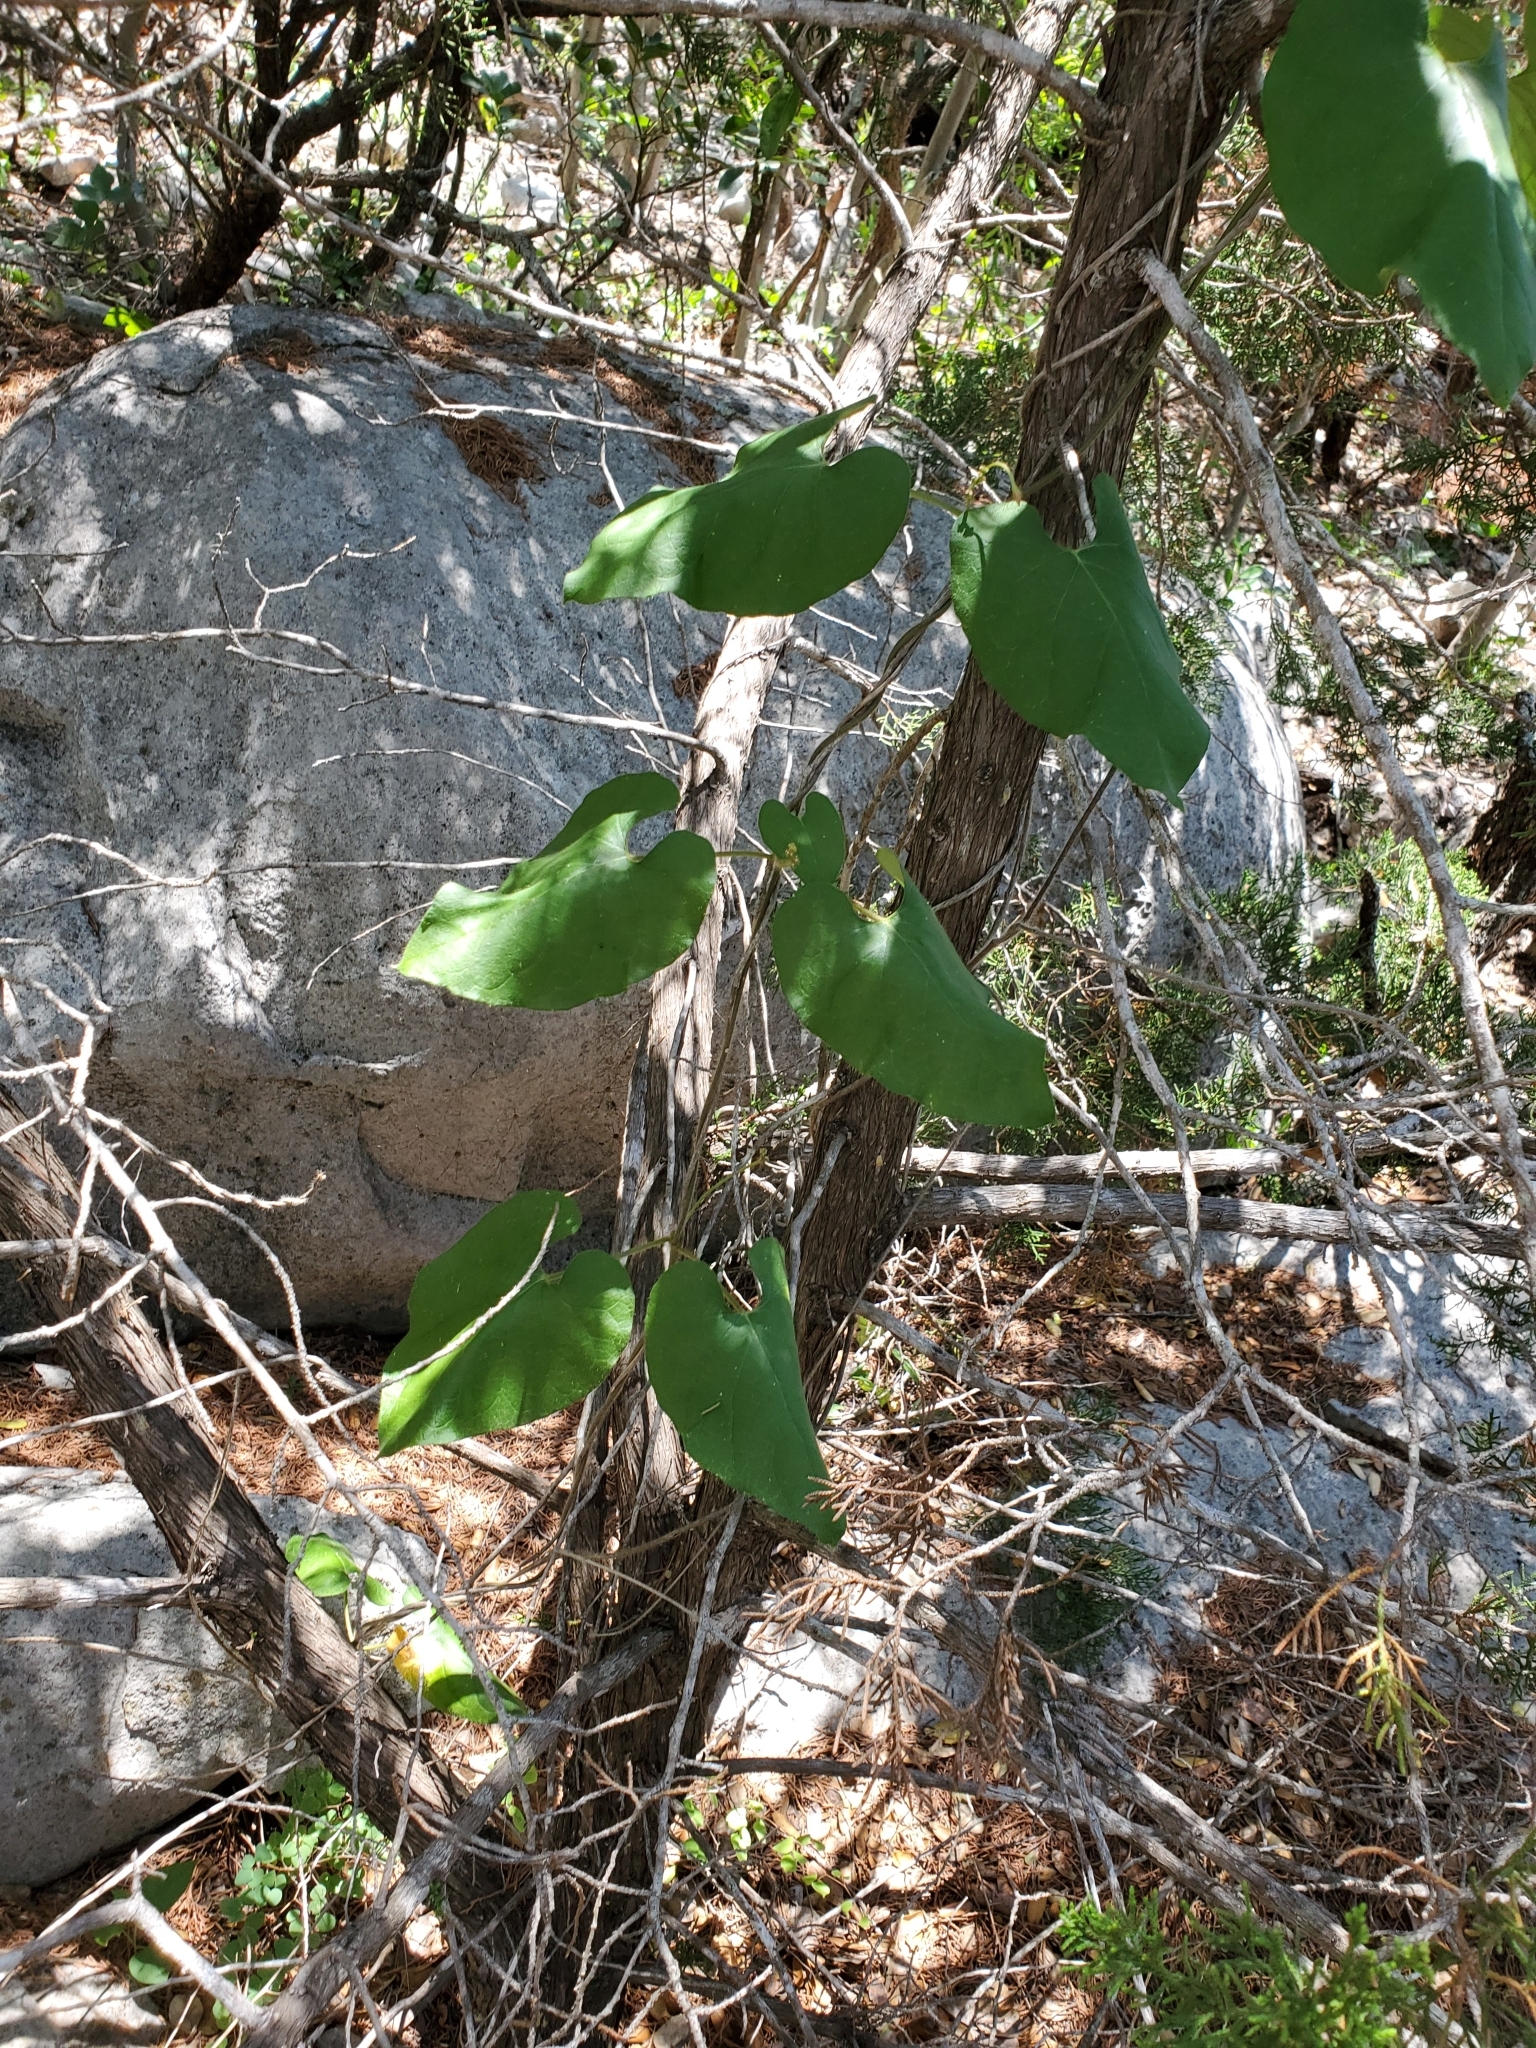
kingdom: Plantae
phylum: Tracheophyta
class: Magnoliopsida
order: Gentianales
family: Apocynaceae
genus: Dictyanthus
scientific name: Dictyanthus reticulatus
